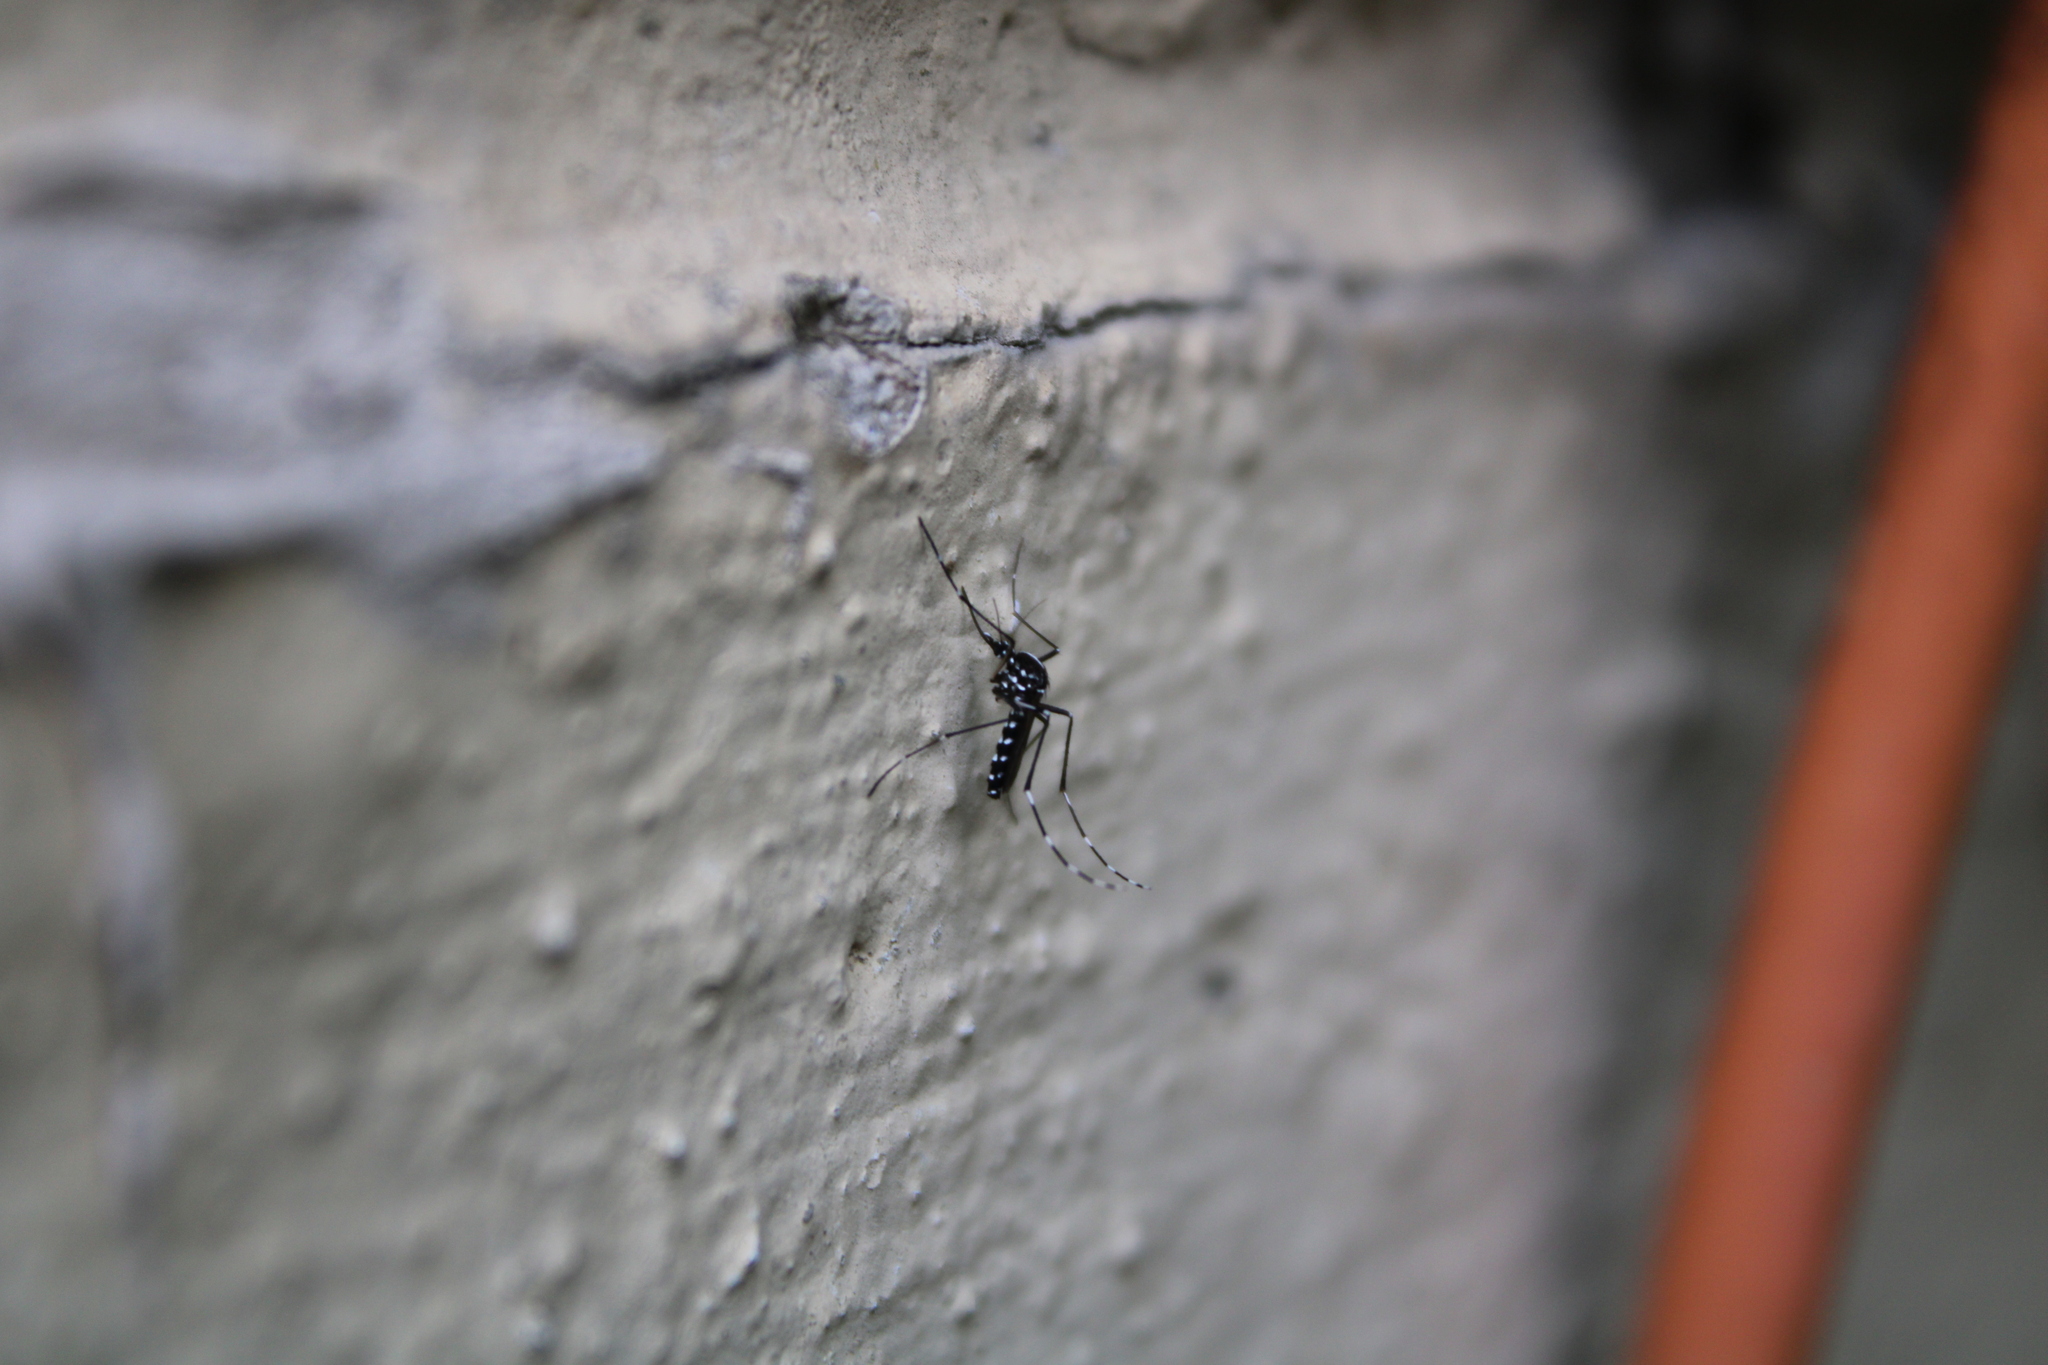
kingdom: Animalia
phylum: Arthropoda
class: Insecta
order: Diptera
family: Culicidae
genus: Aedes
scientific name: Aedes albopictus
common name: Tiger mosquito
